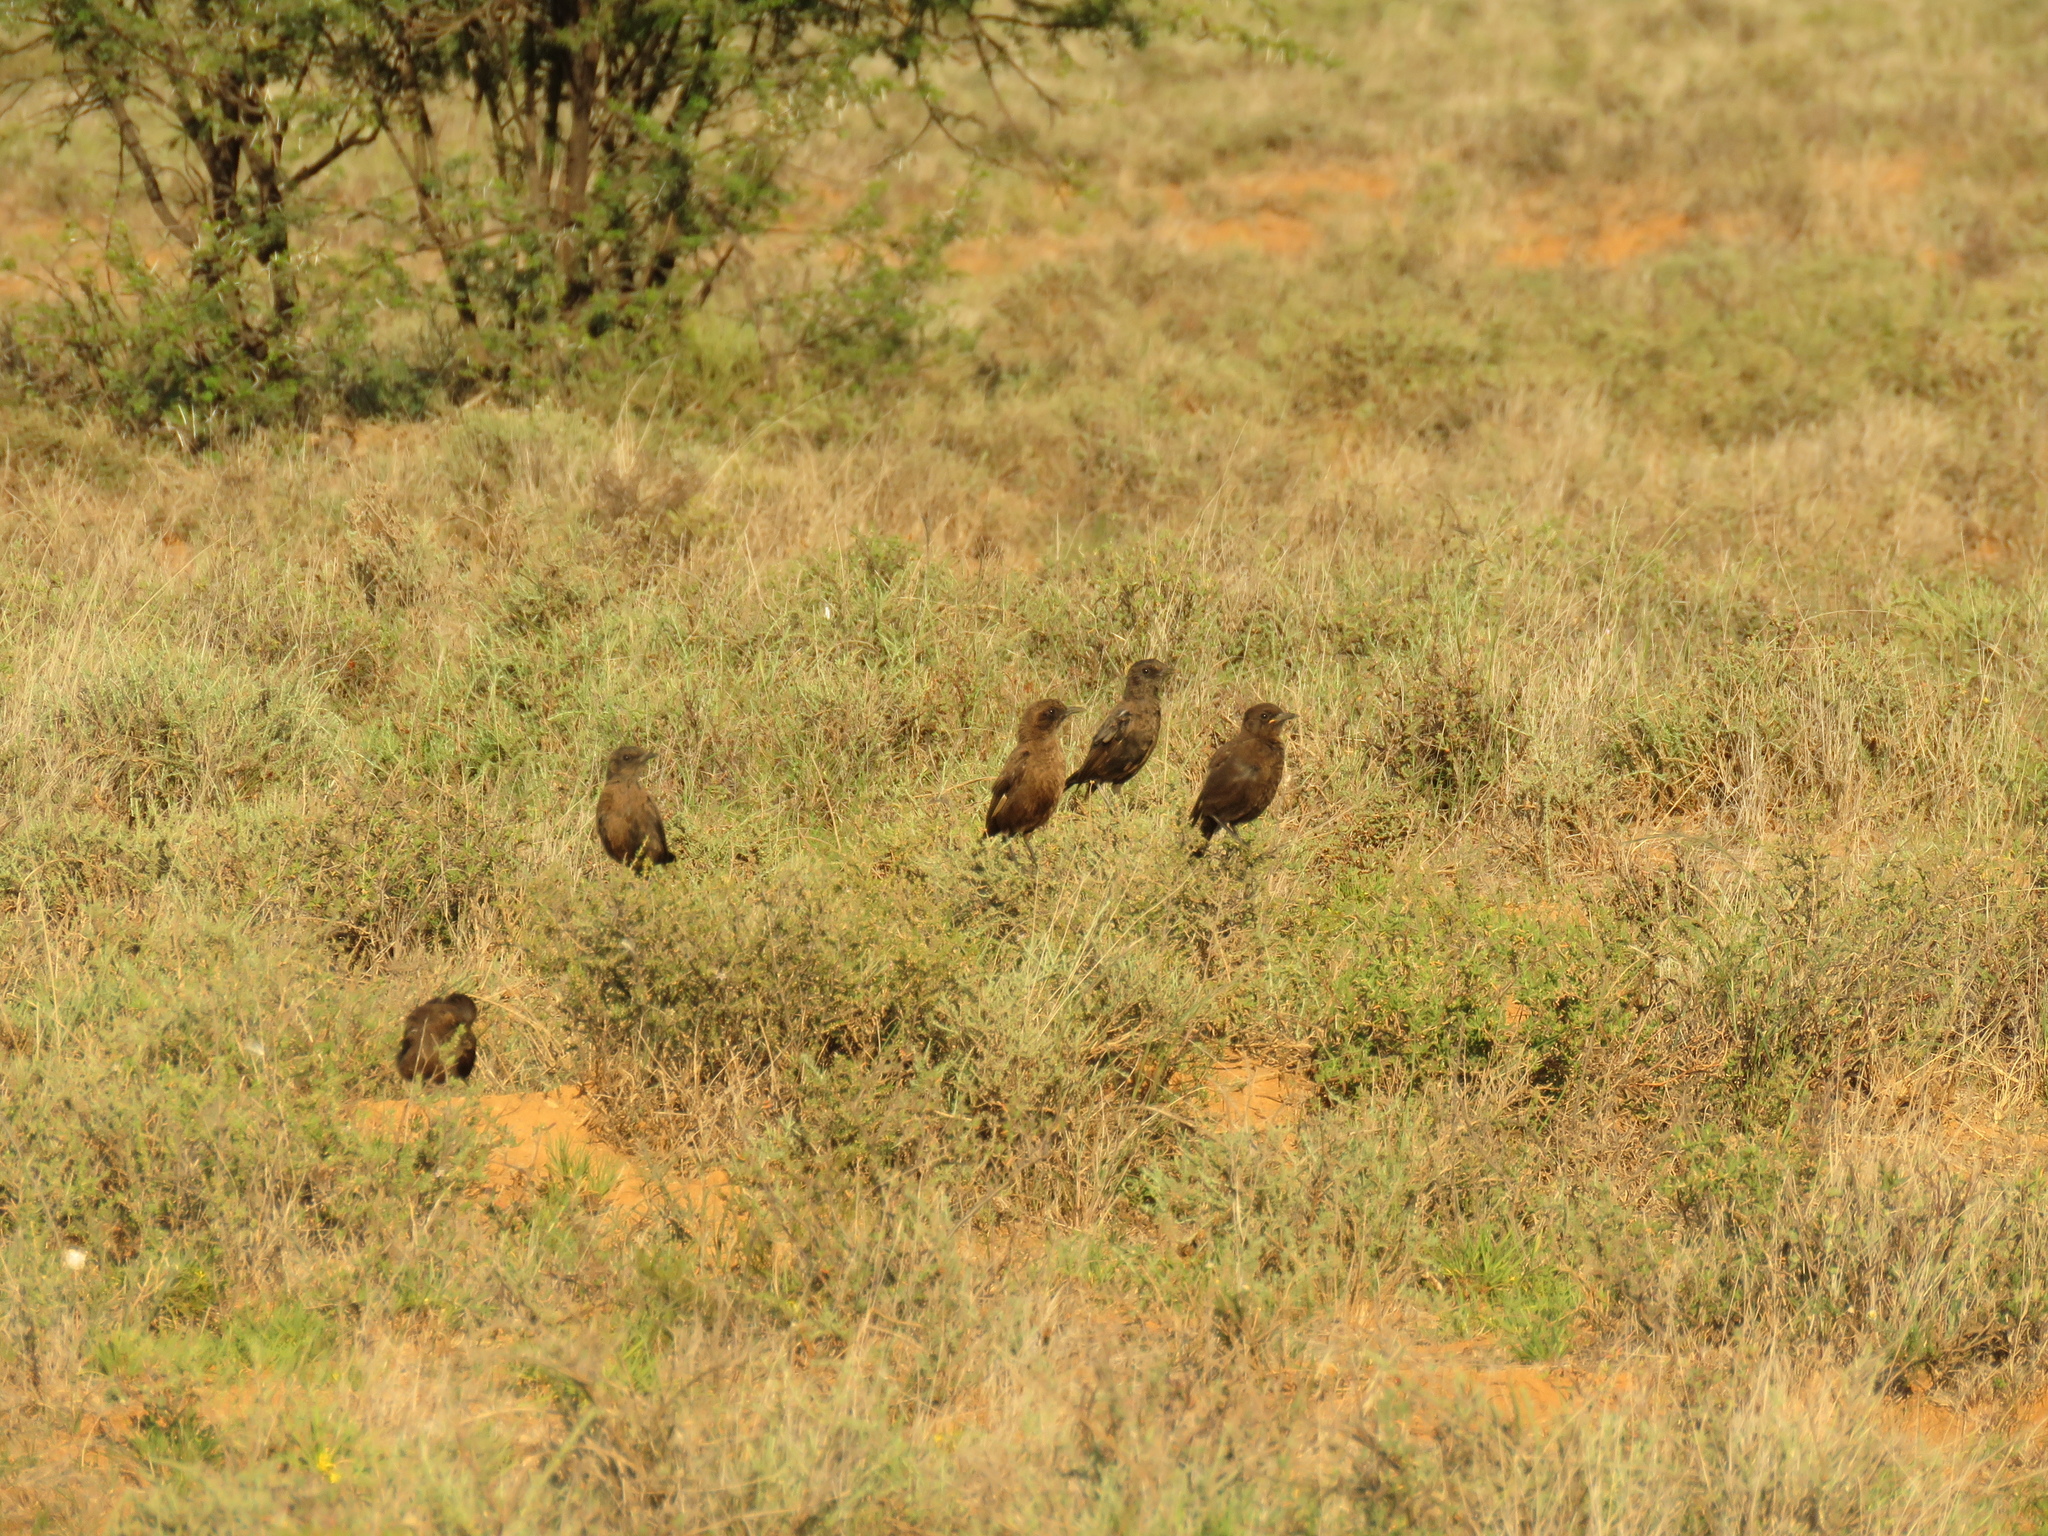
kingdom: Animalia
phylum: Chordata
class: Aves
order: Passeriformes
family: Muscicapidae
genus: Myrmecocichla
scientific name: Myrmecocichla formicivora
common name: Ant-eating chat
